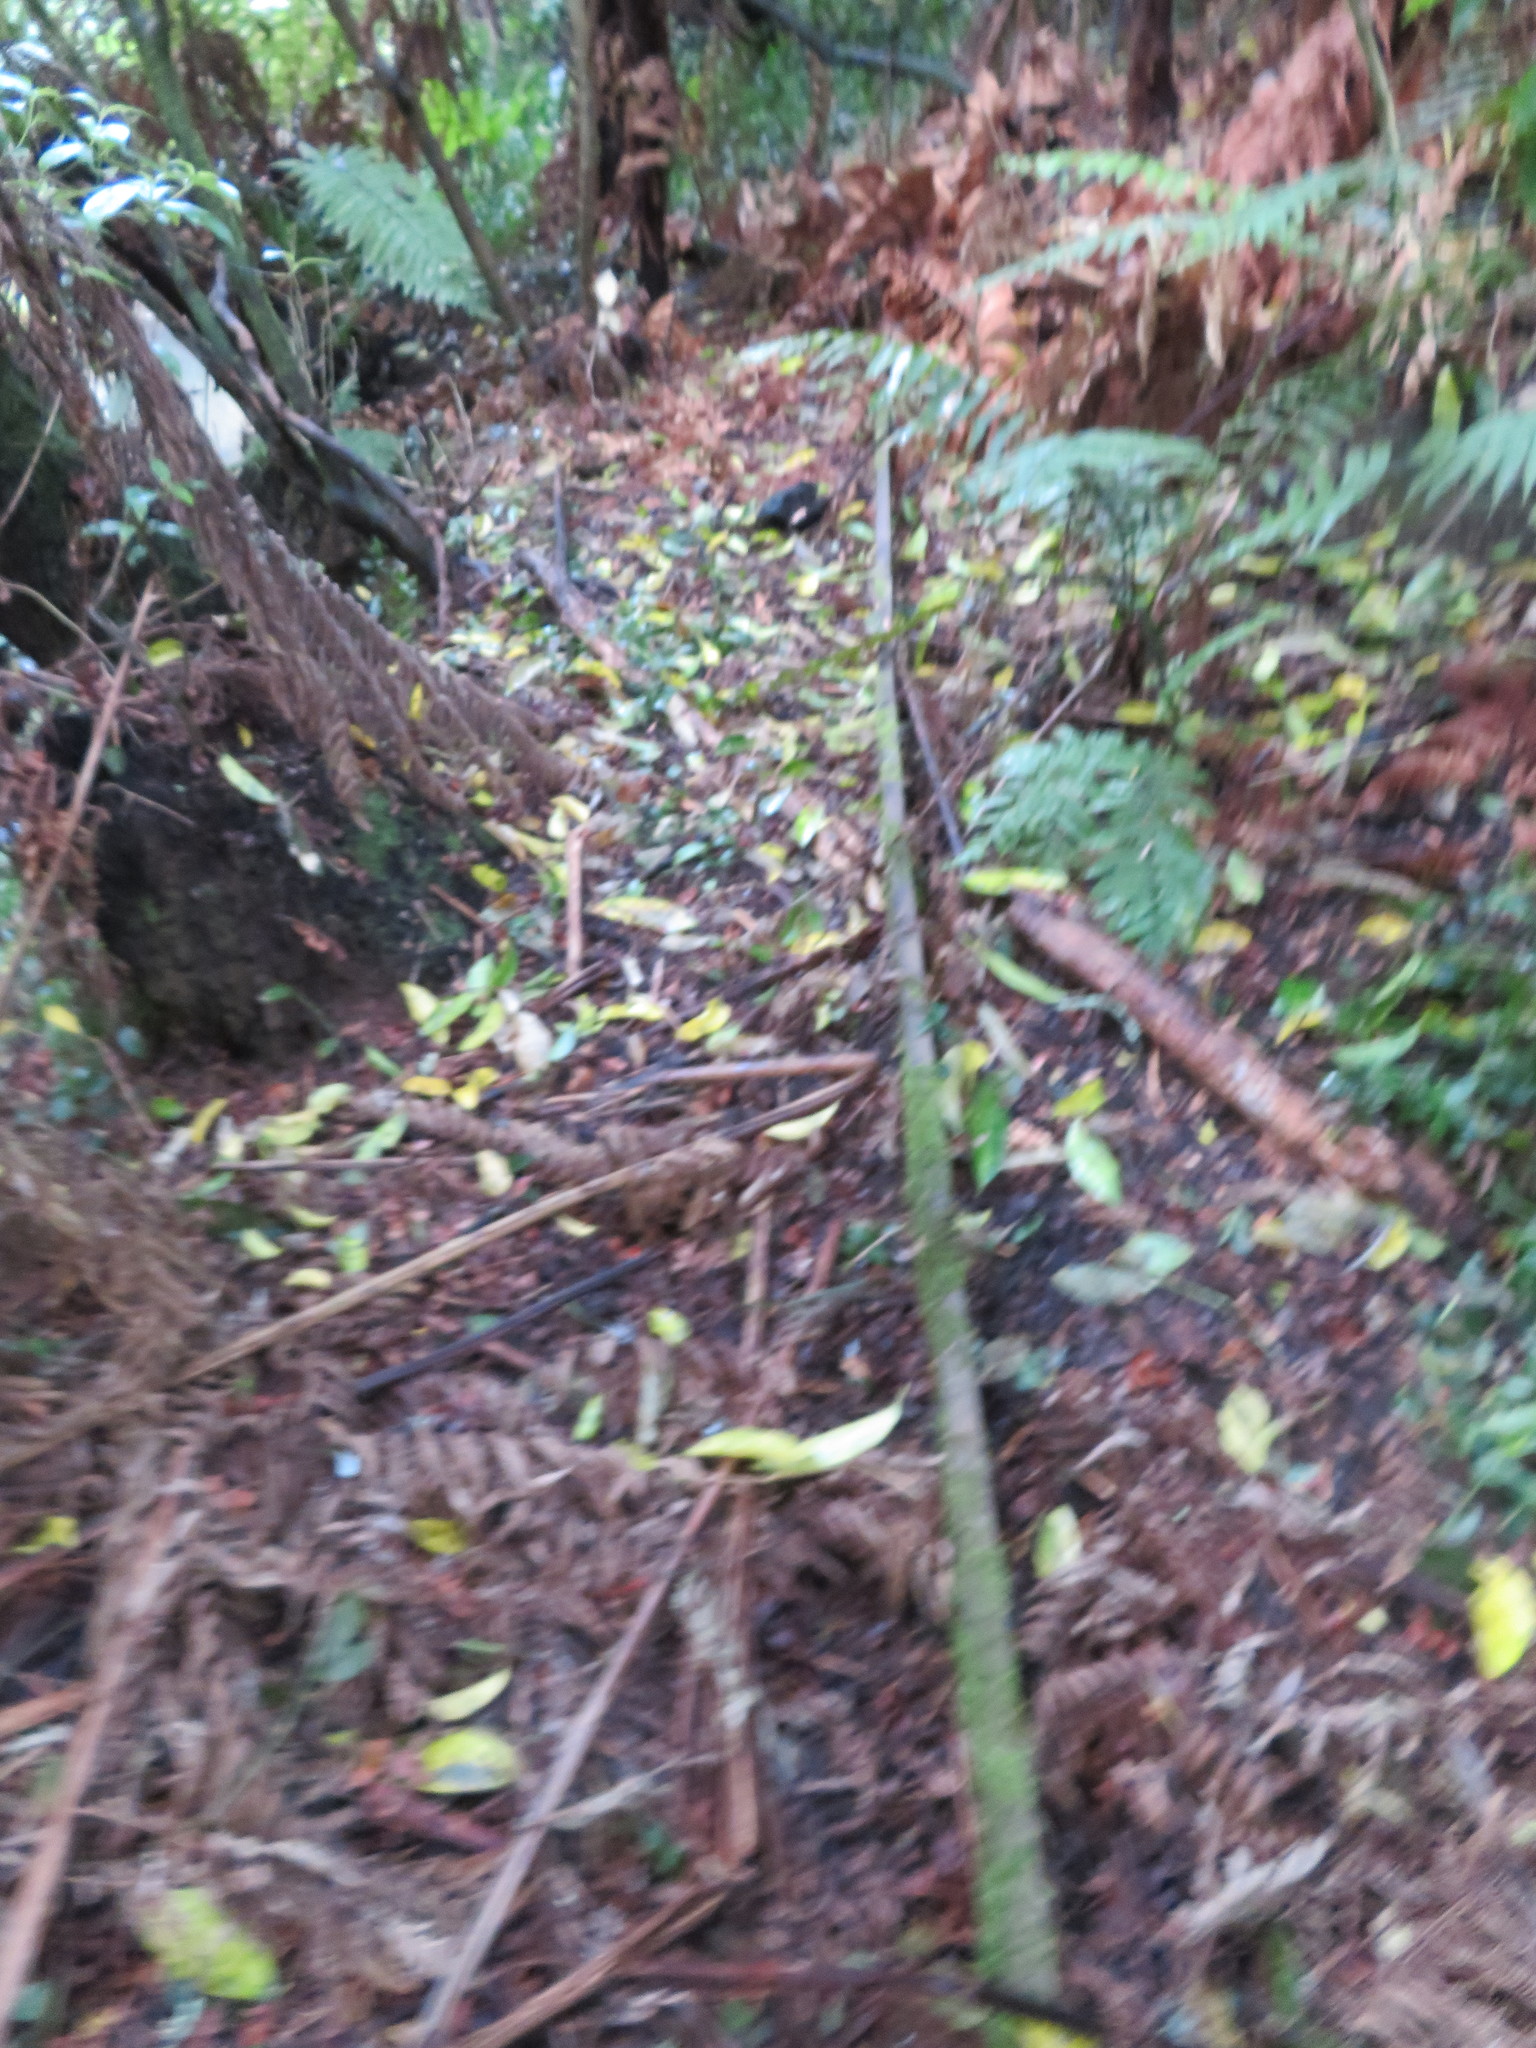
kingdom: Plantae
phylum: Tracheophyta
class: Liliopsida
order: Commelinales
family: Commelinaceae
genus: Tradescantia
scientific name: Tradescantia fluminensis
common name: Wandering-jew
